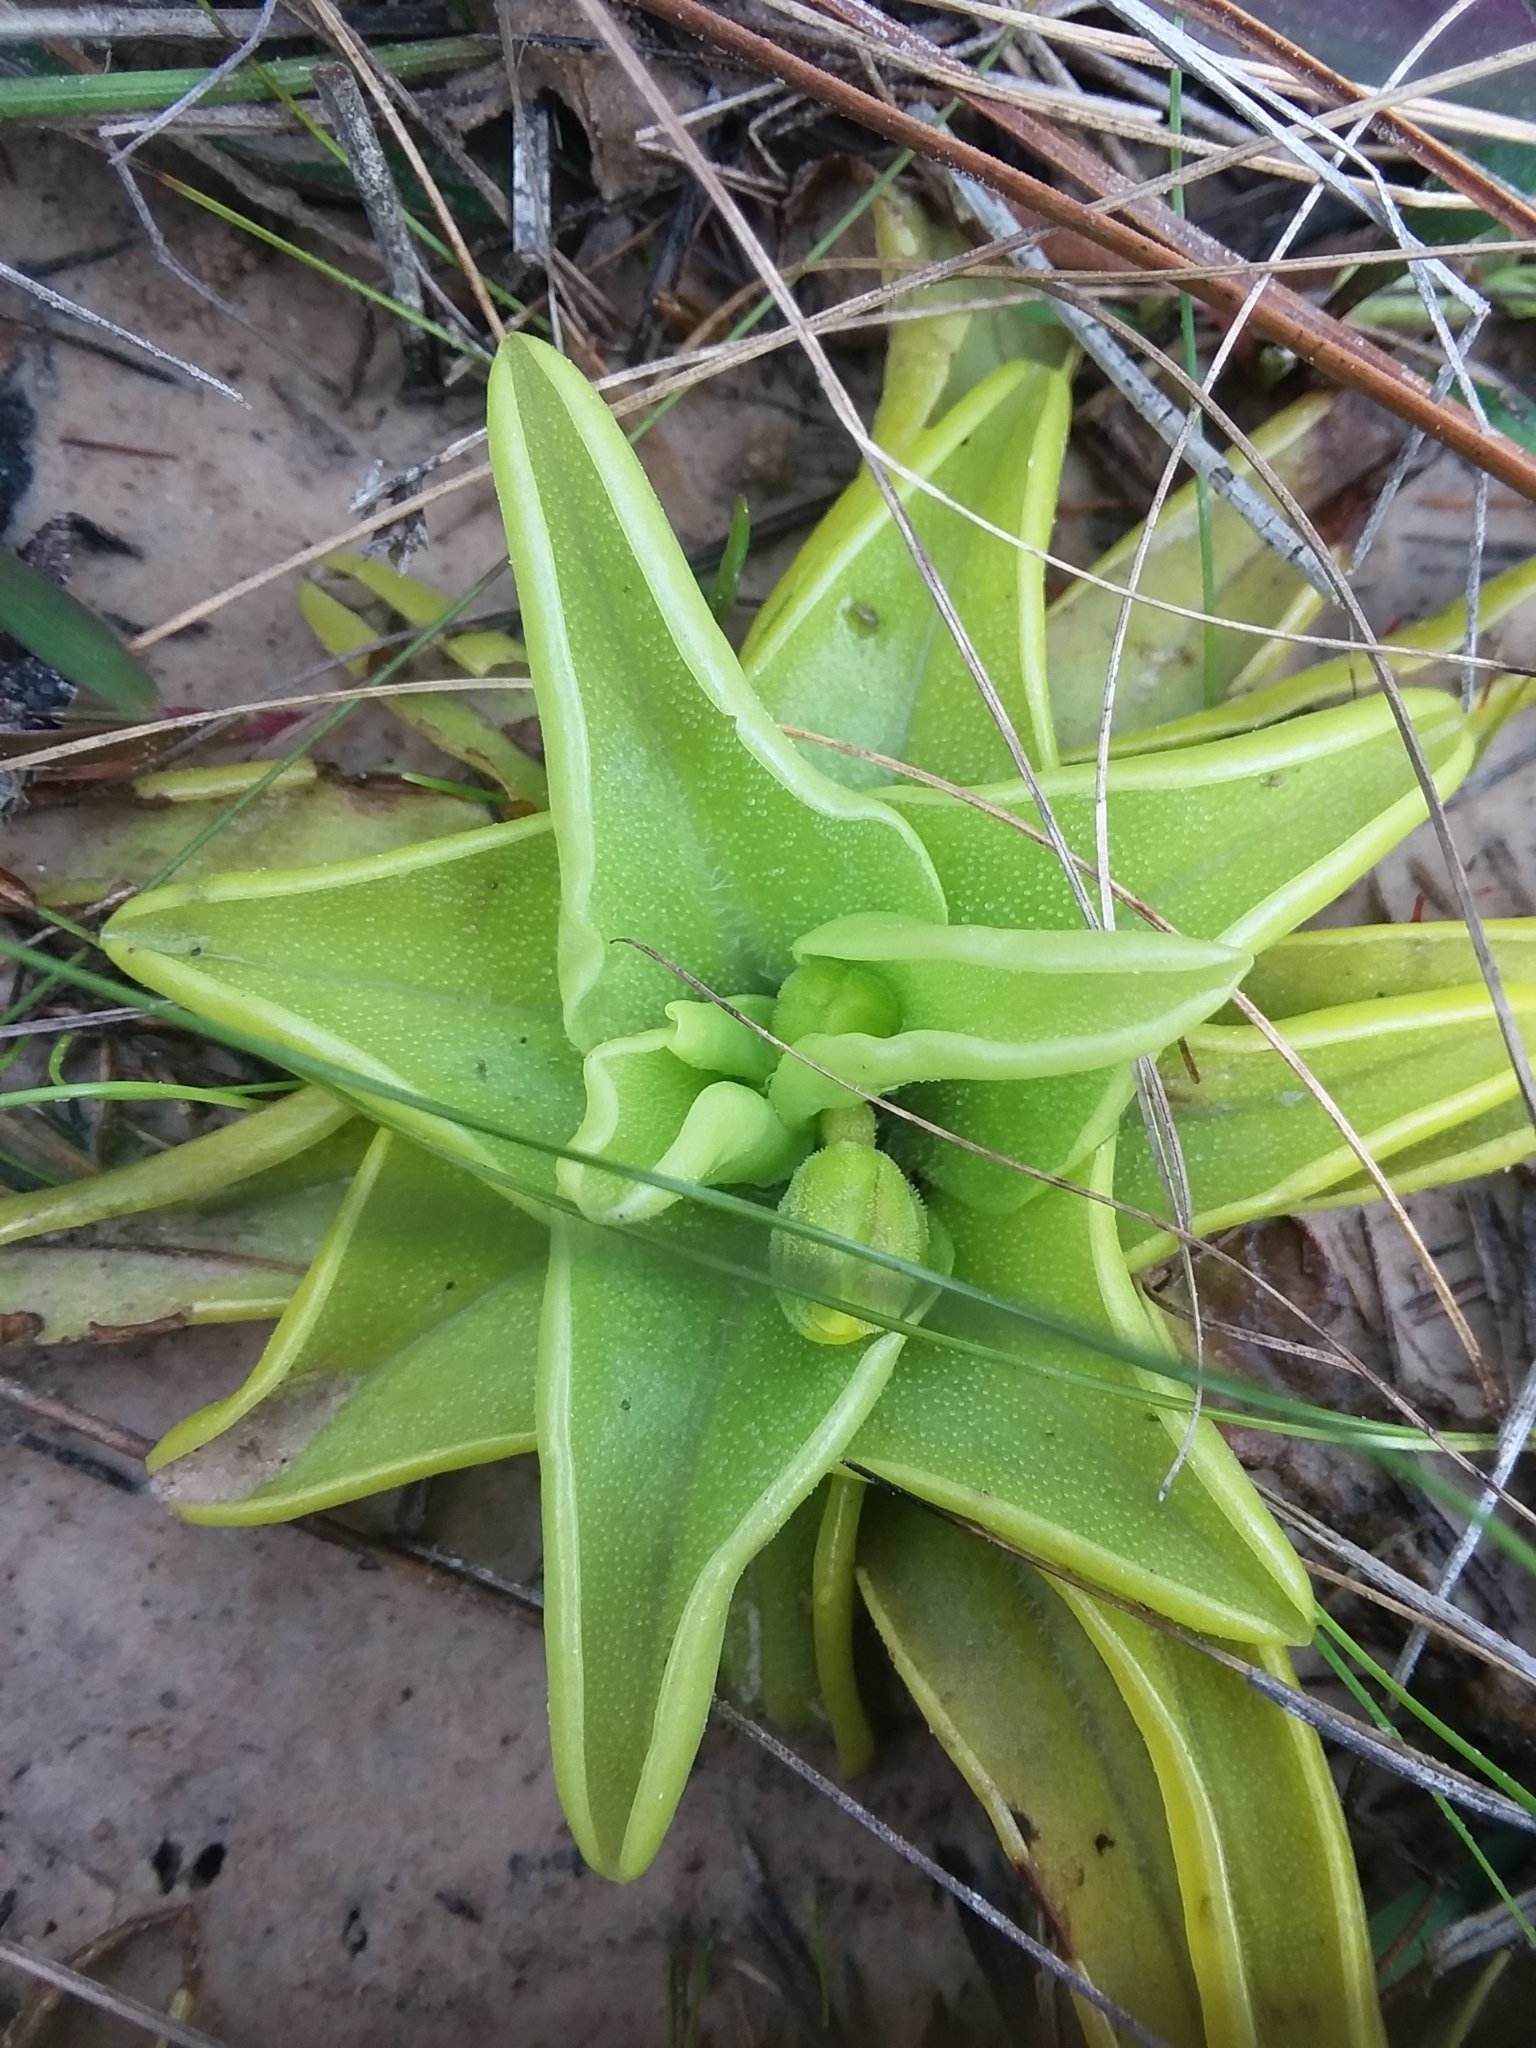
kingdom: Plantae
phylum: Tracheophyta
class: Magnoliopsida
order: Lamiales
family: Lentibulariaceae
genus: Pinguicula
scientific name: Pinguicula lutea
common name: Yellow butterwort
